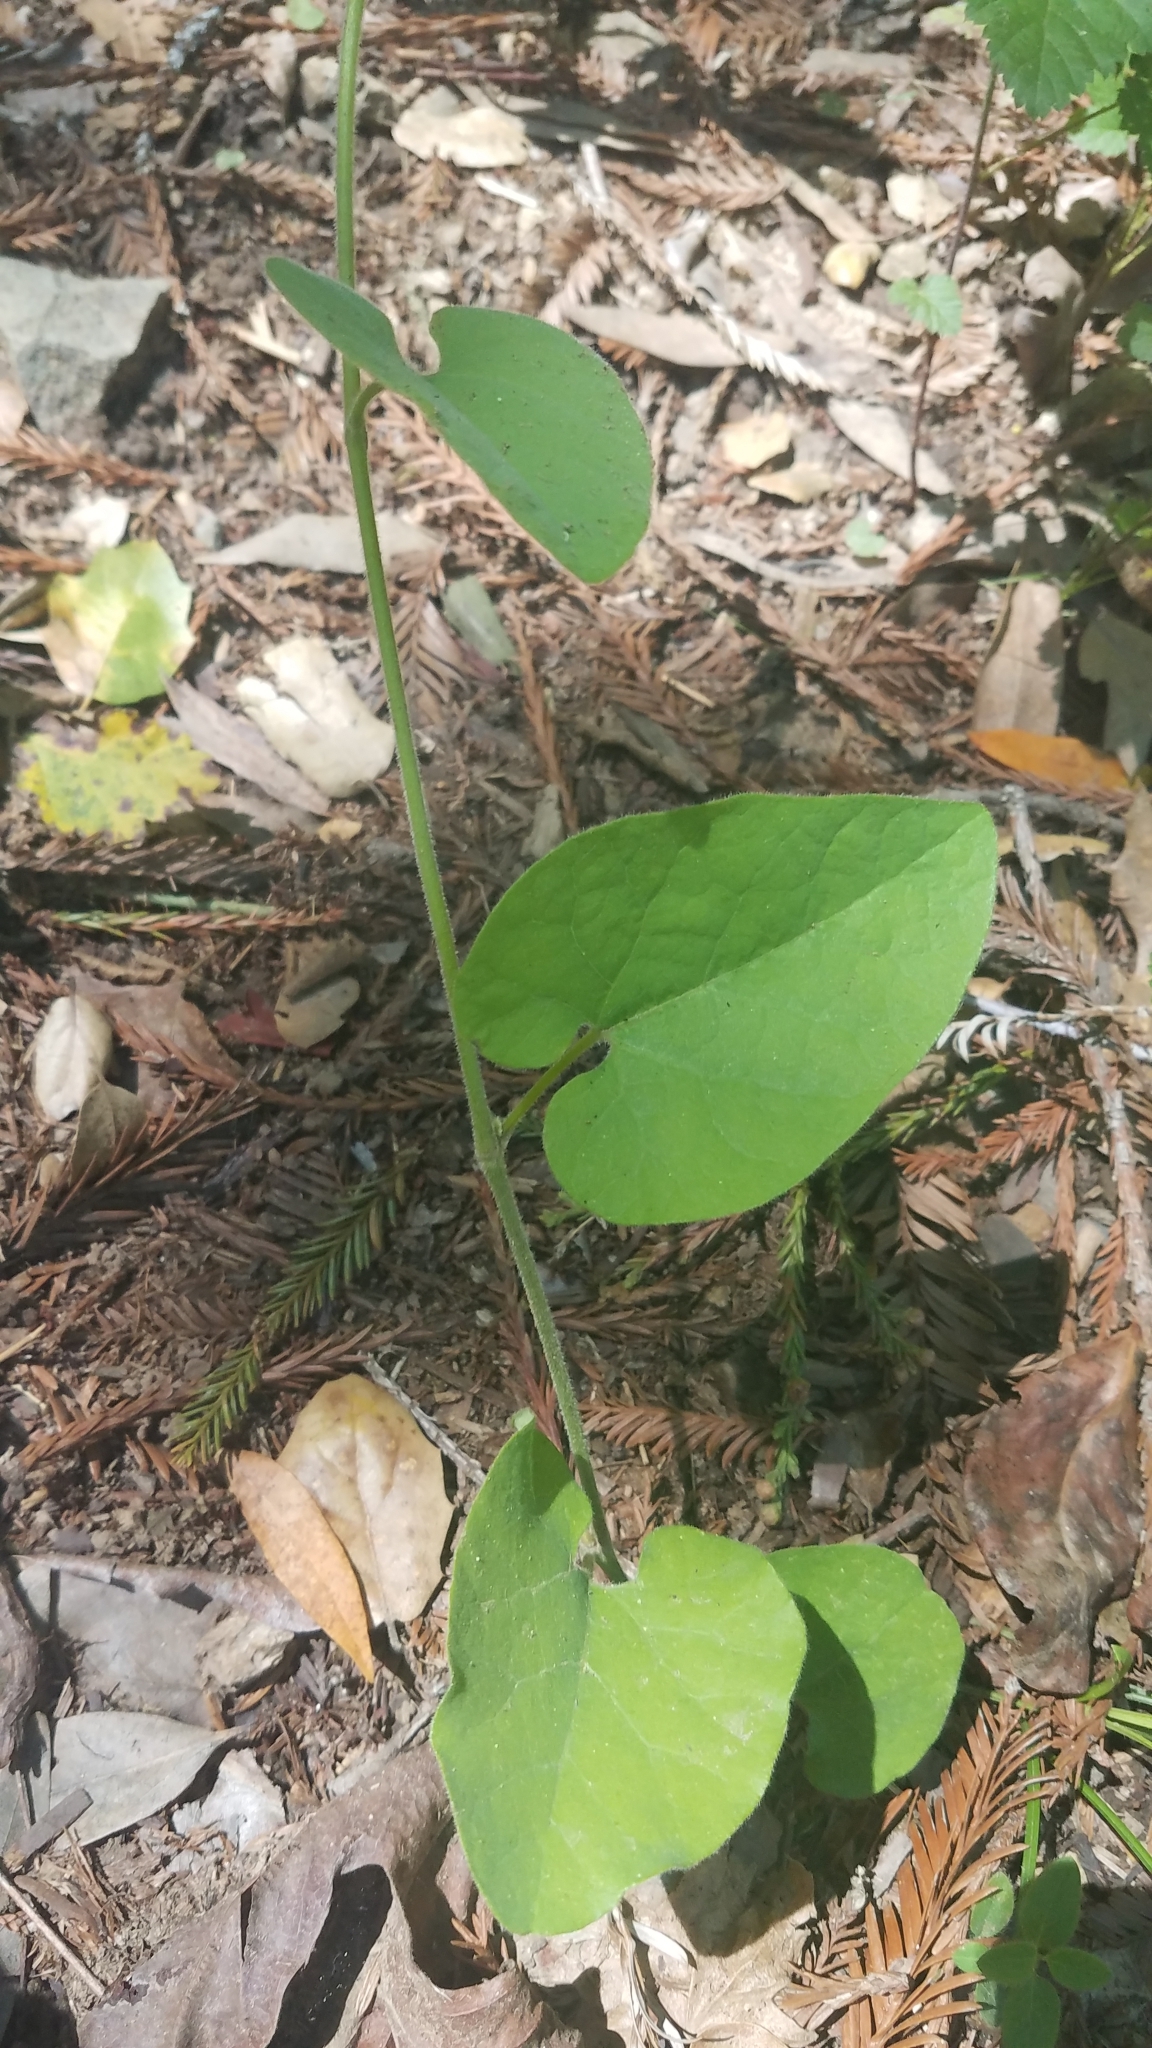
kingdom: Plantae
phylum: Tracheophyta
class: Magnoliopsida
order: Piperales
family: Aristolochiaceae
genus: Isotrema
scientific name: Isotrema californicum
